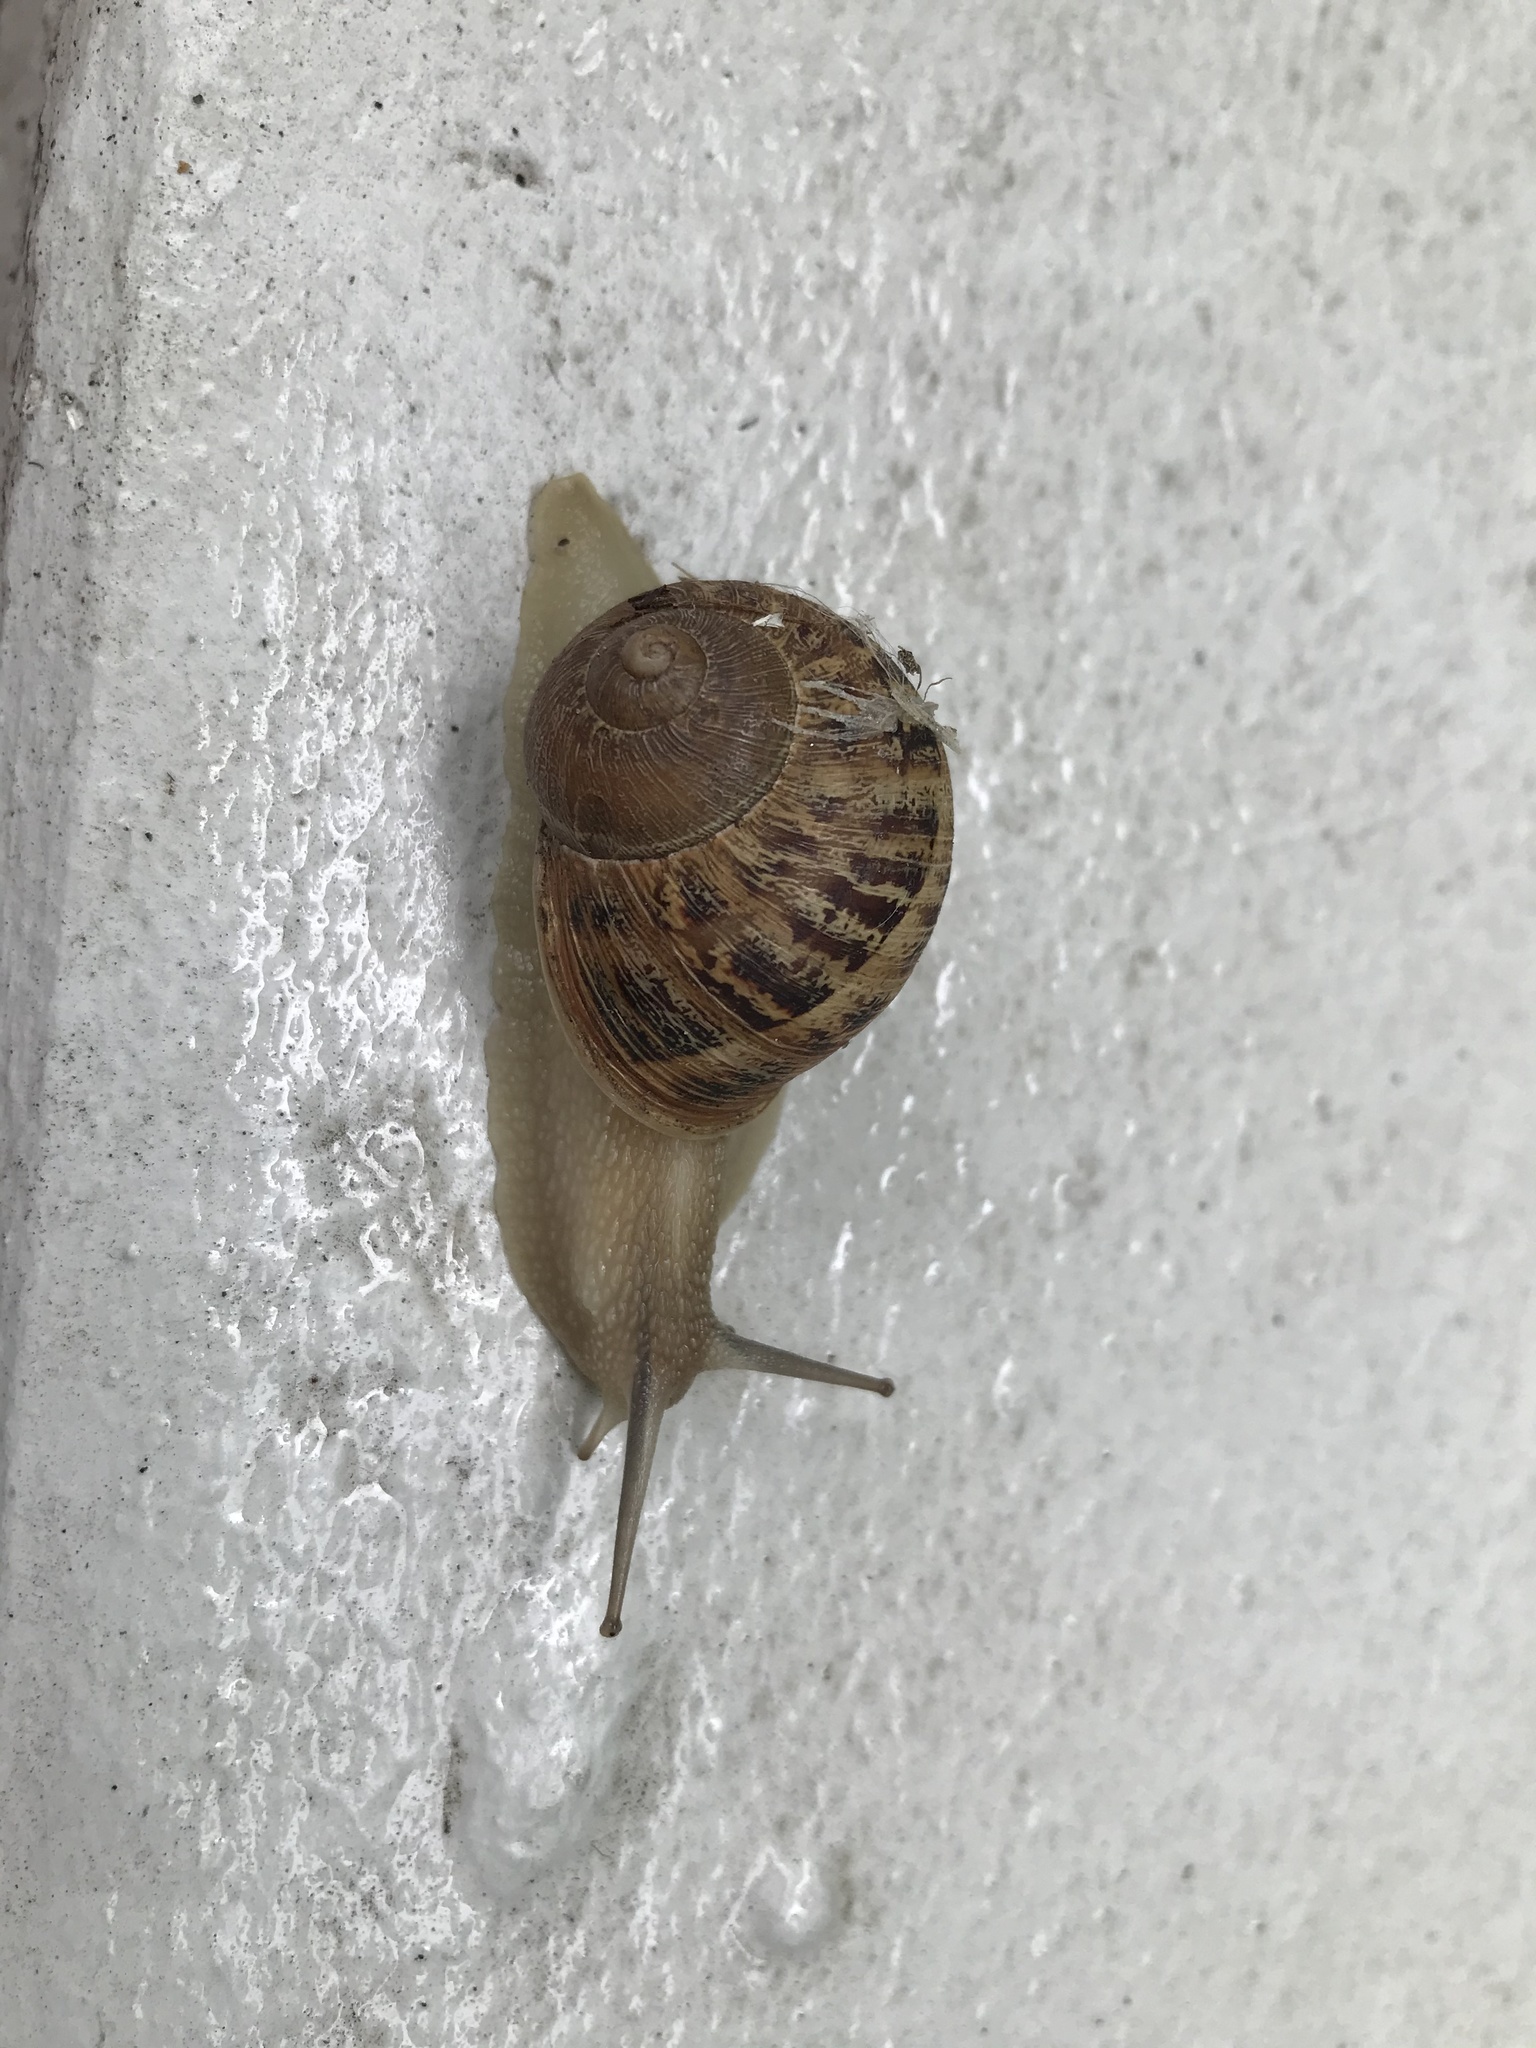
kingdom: Animalia
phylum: Mollusca
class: Gastropoda
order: Stylommatophora
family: Helicidae
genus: Cornu
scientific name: Cornu aspersum
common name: Brown garden snail
